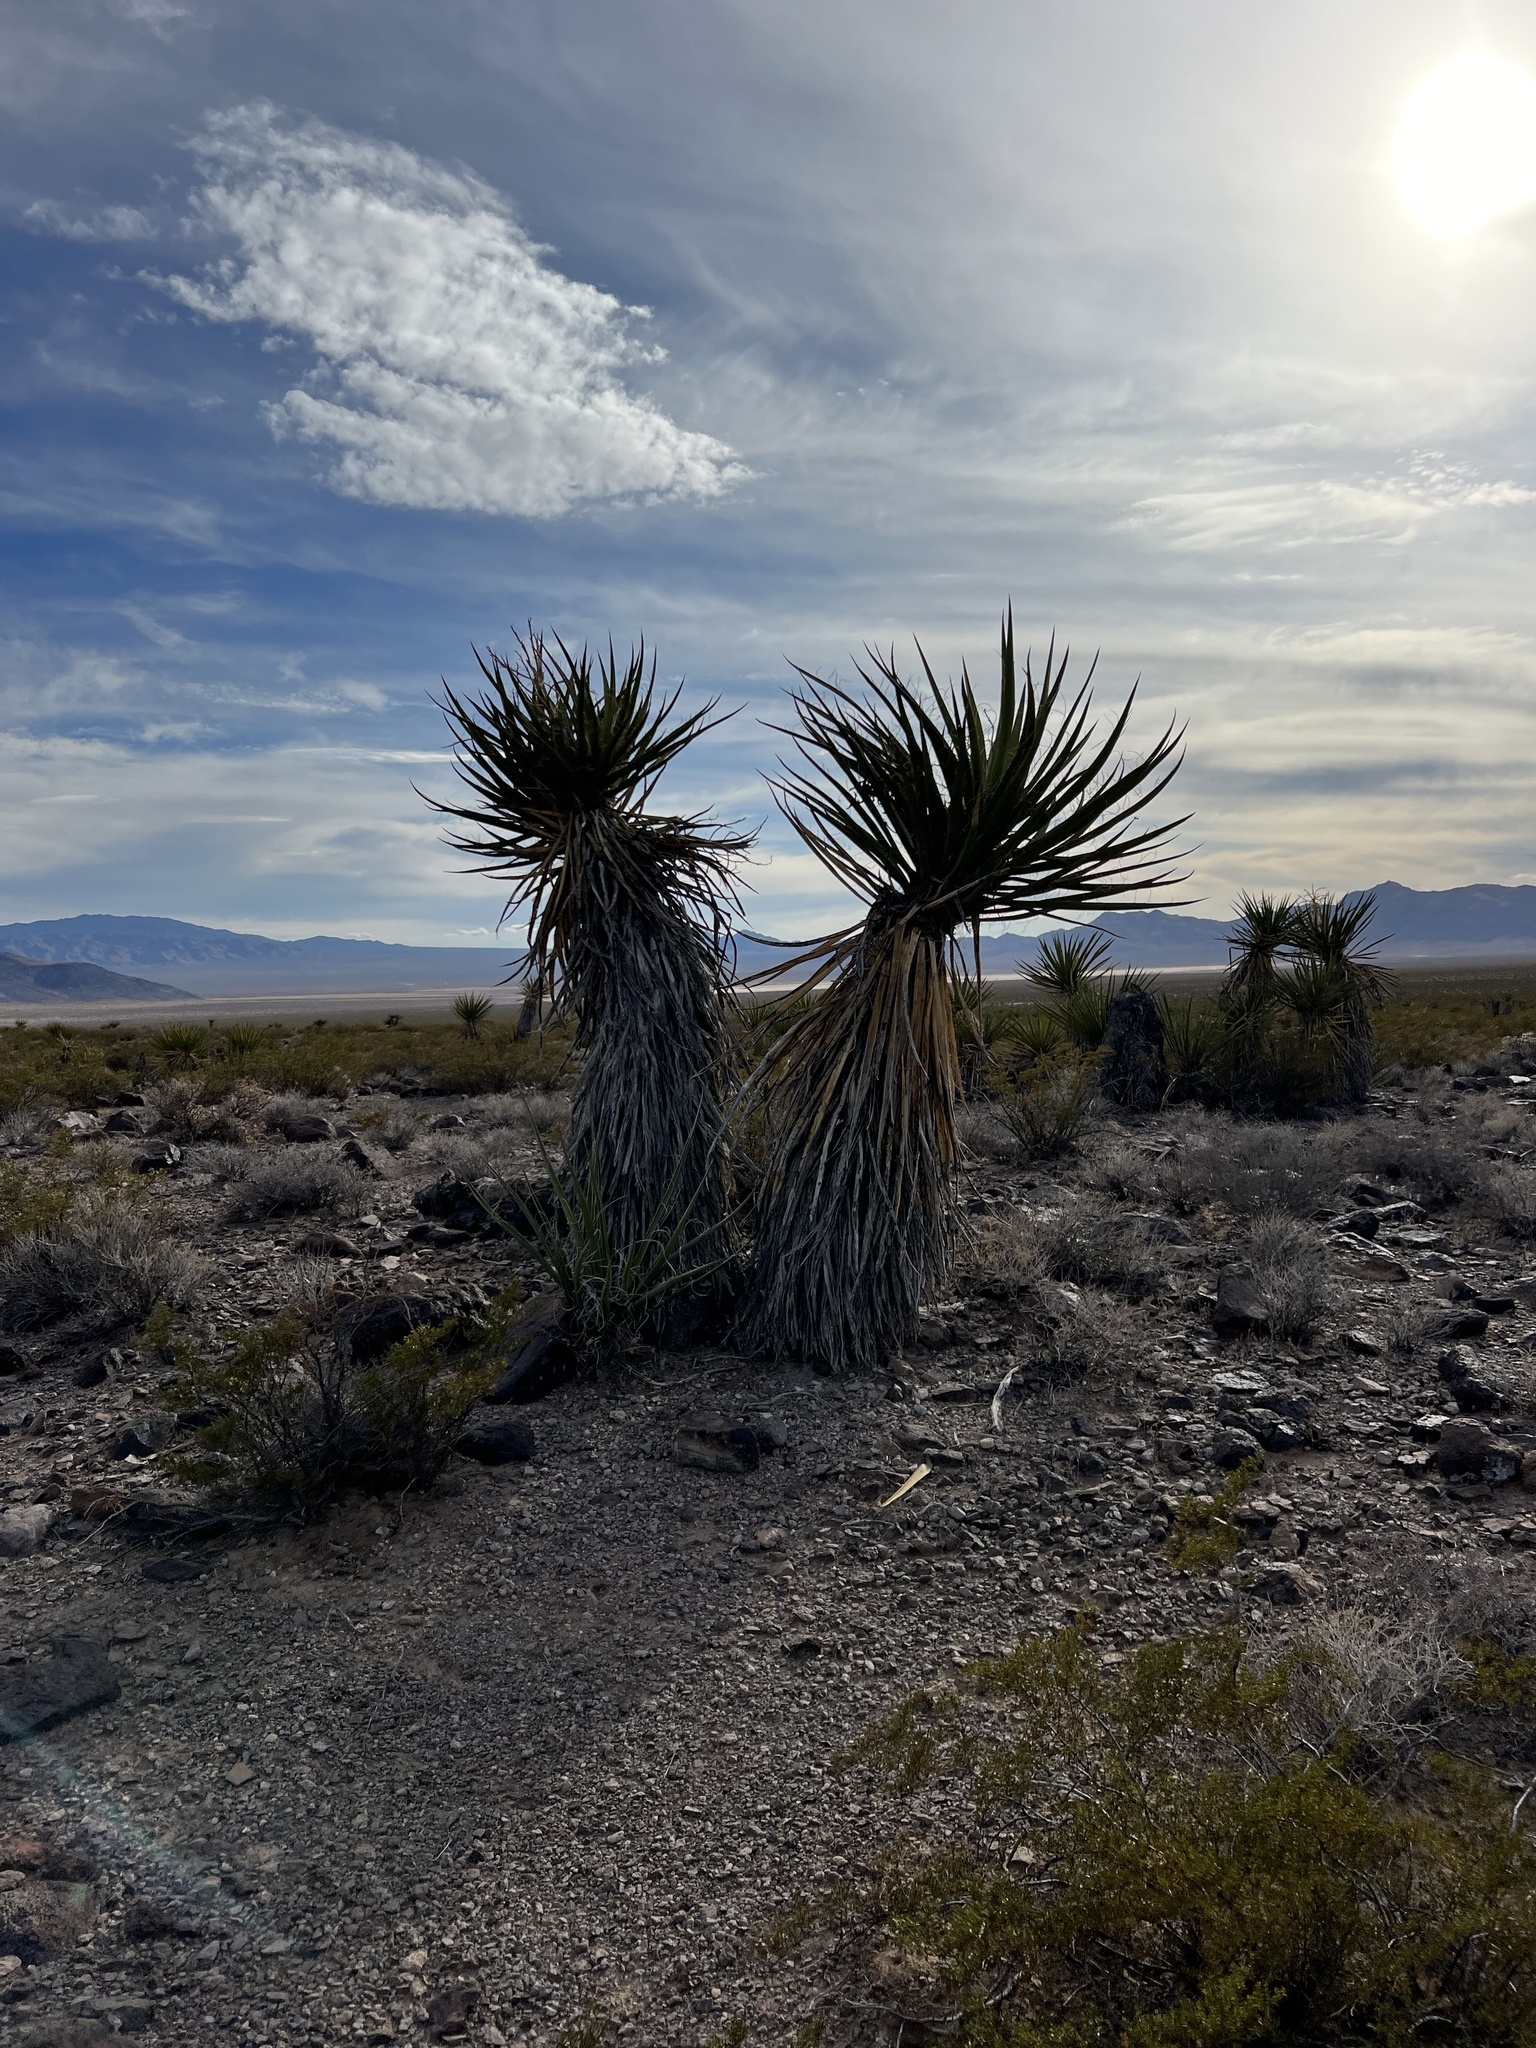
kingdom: Plantae
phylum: Tracheophyta
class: Liliopsida
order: Asparagales
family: Asparagaceae
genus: Yucca
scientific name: Yucca schidigera
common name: Mojave yucca
